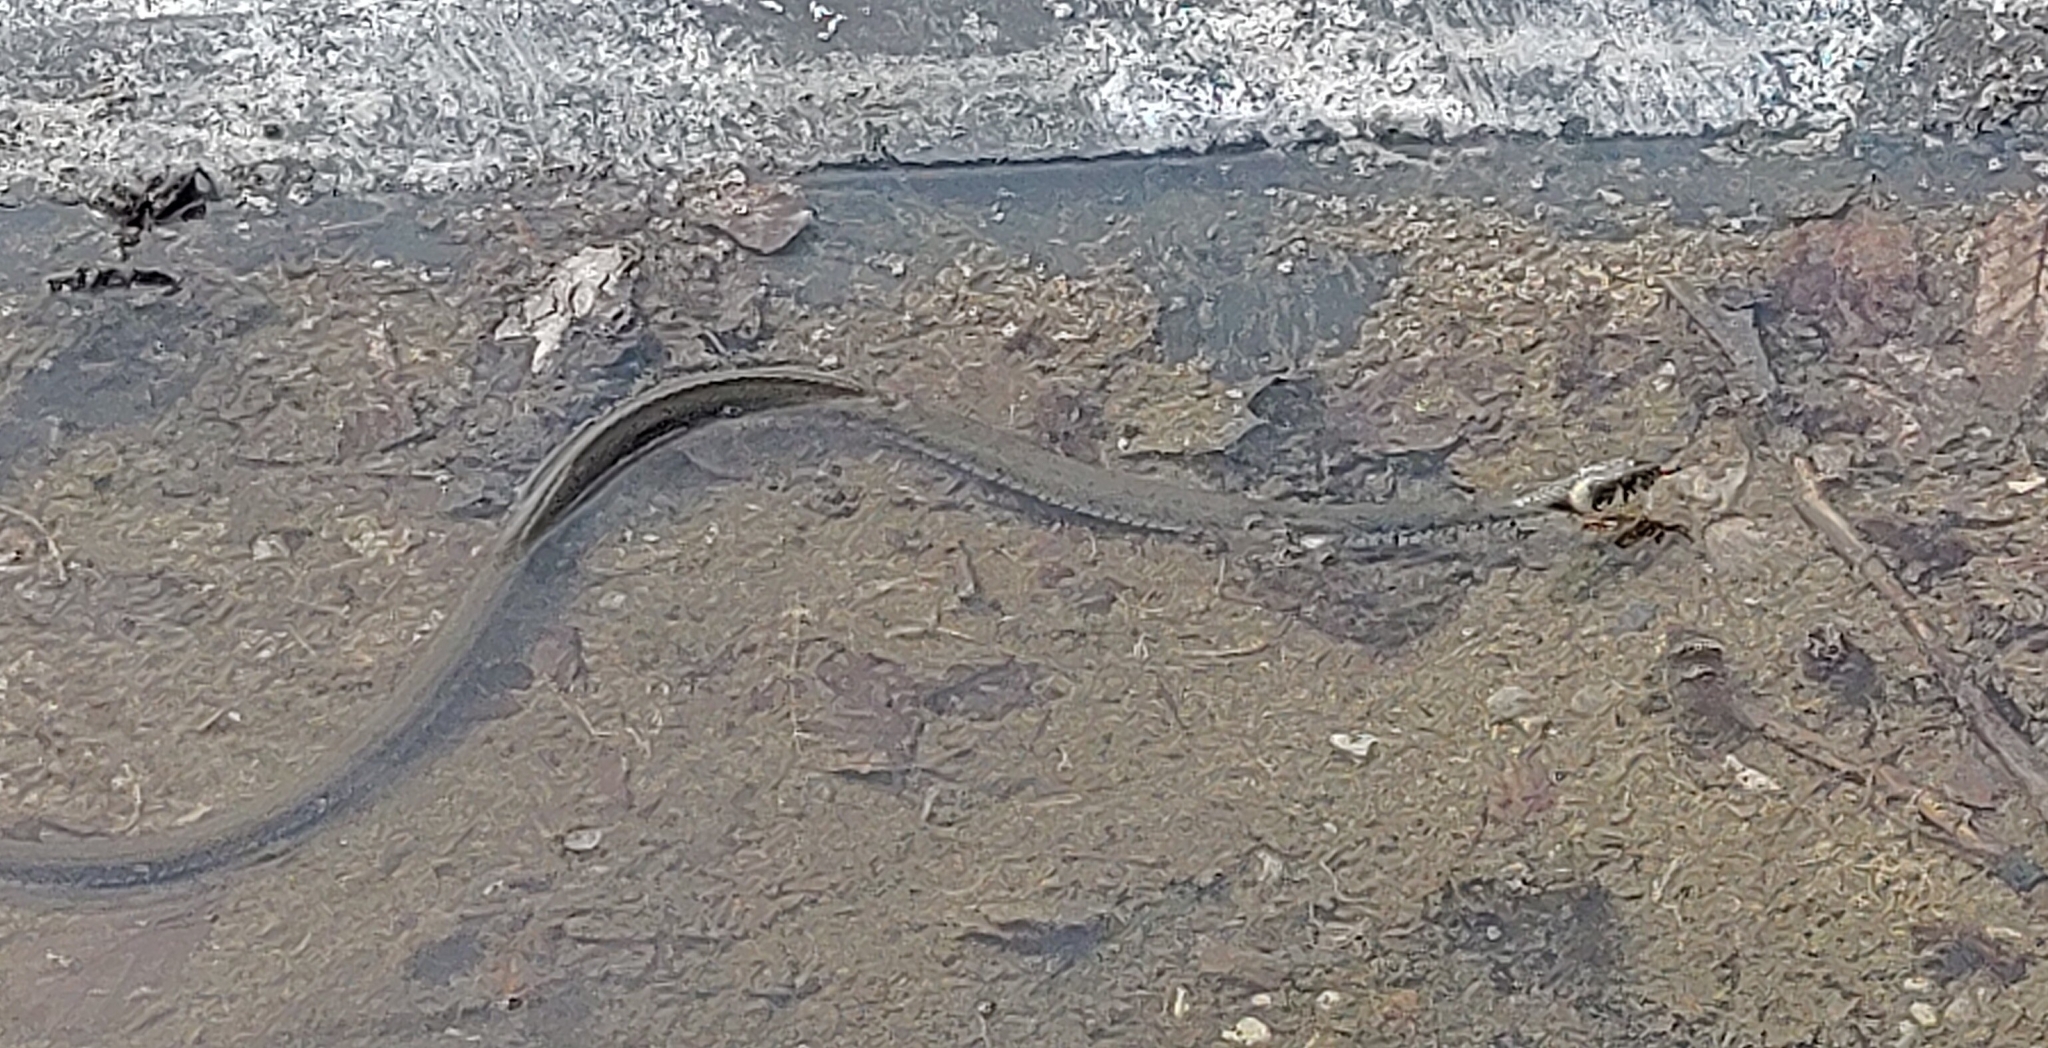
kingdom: Animalia
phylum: Chordata
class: Squamata
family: Colubridae
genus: Natrix
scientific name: Natrix natrix
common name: Grass snake
